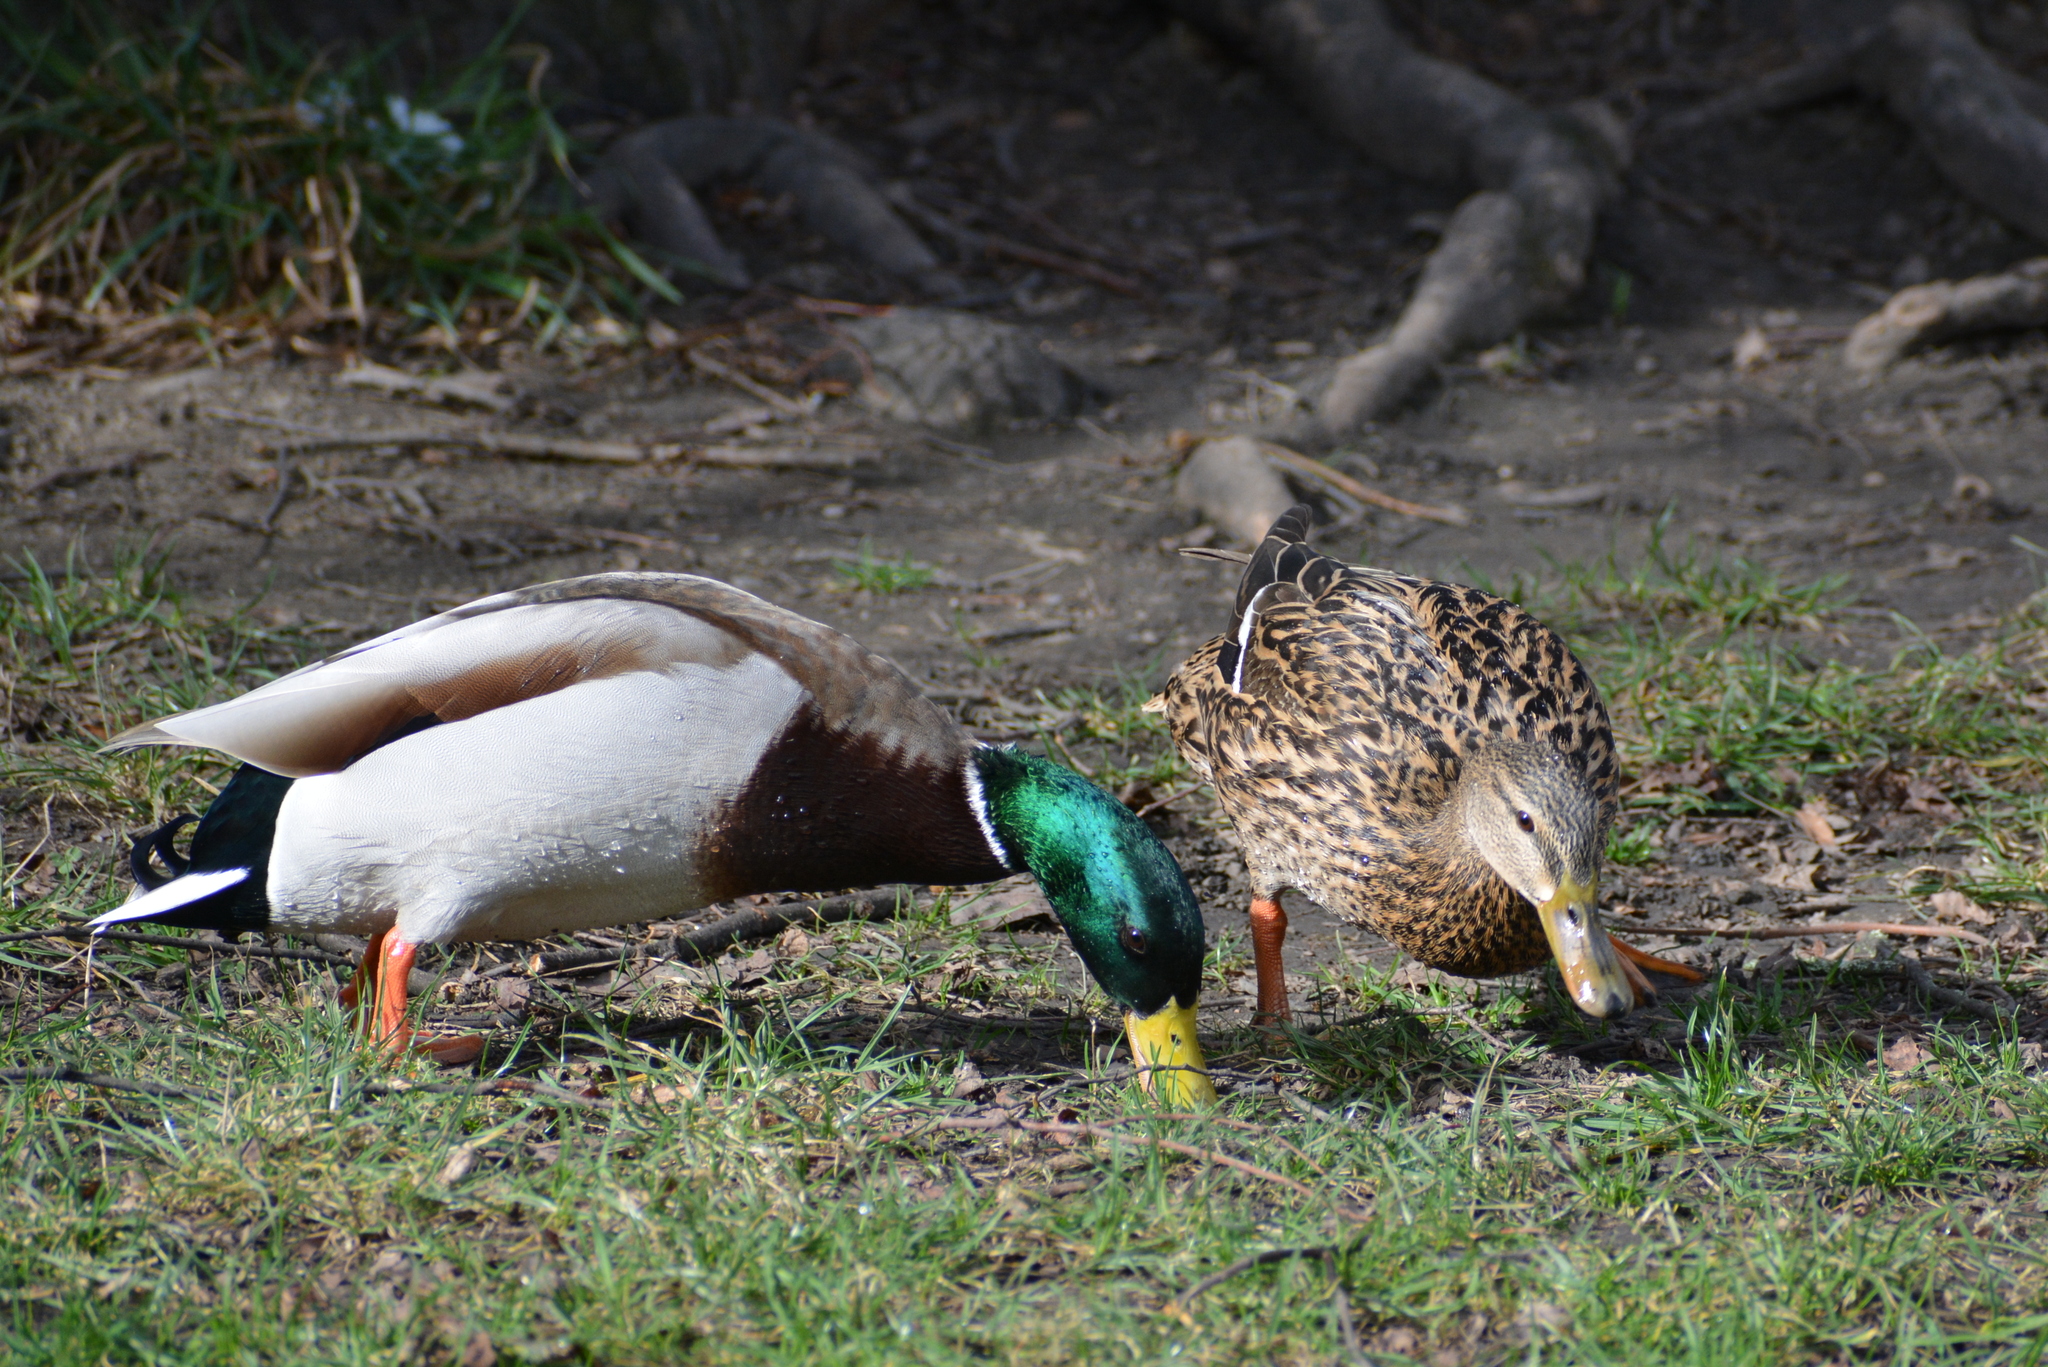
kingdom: Animalia
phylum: Chordata
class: Aves
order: Anseriformes
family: Anatidae
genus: Anas
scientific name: Anas platyrhynchos
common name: Mallard
